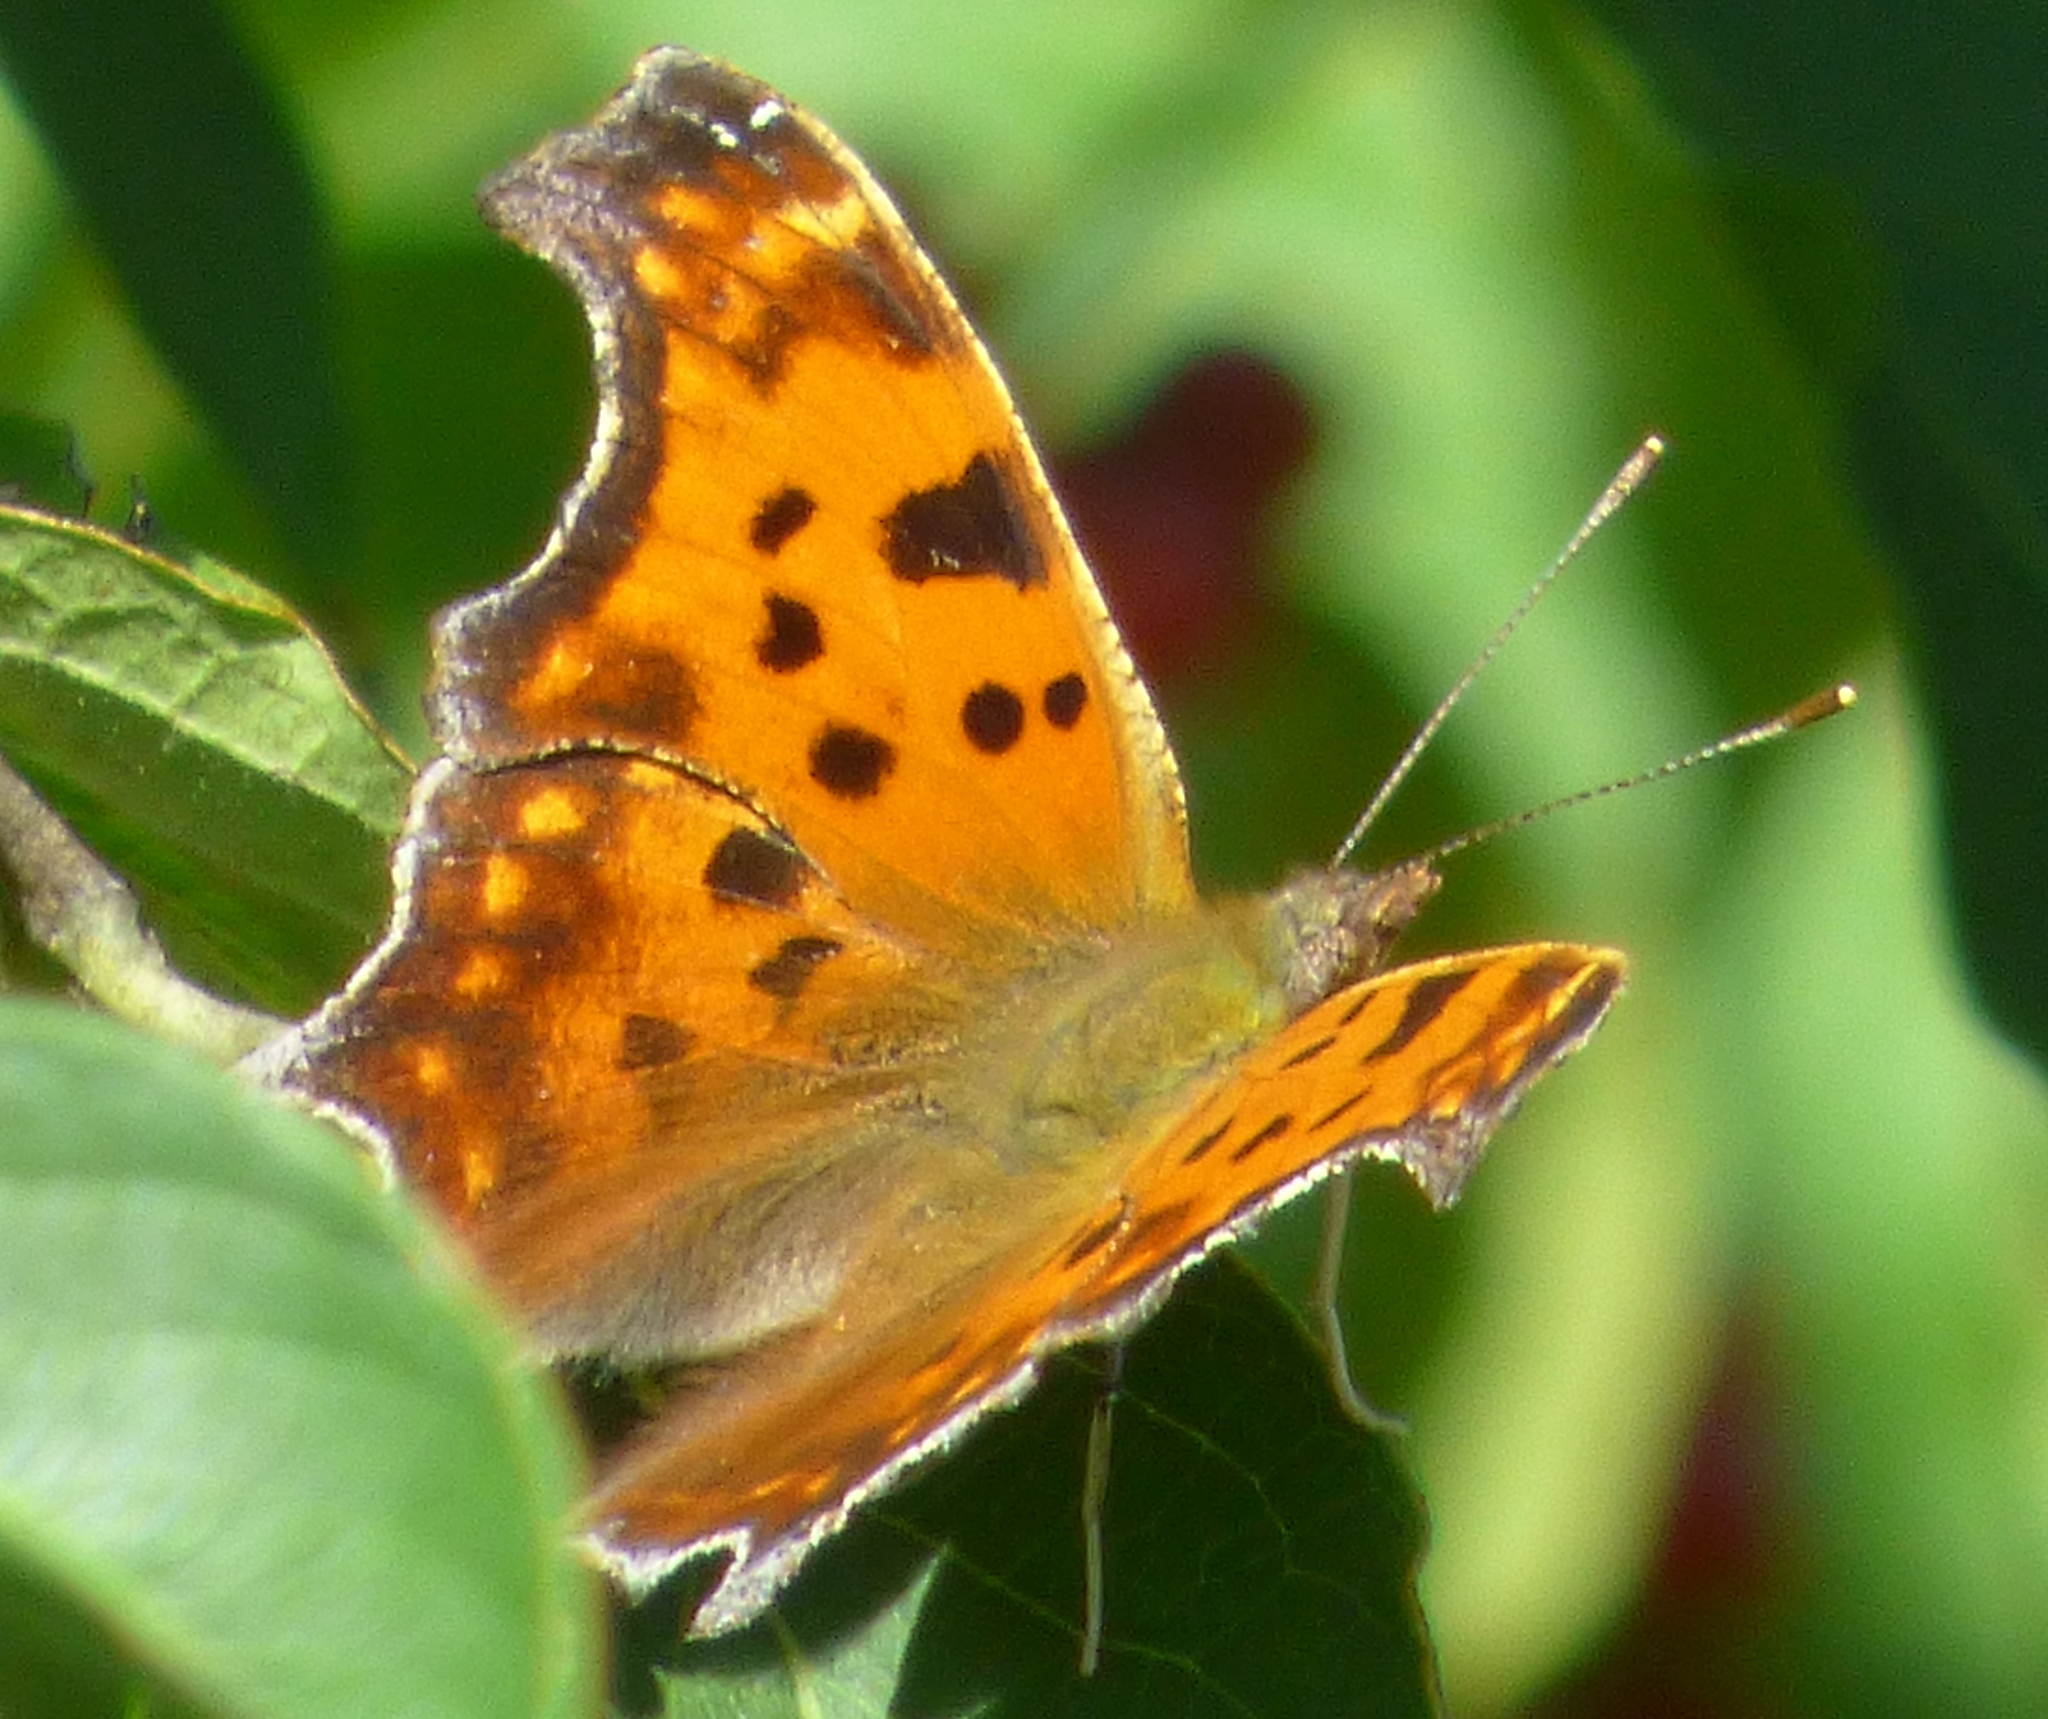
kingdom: Animalia
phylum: Arthropoda
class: Insecta
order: Lepidoptera
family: Nymphalidae
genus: Polygonia
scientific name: Polygonia comma
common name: Eastern comma
